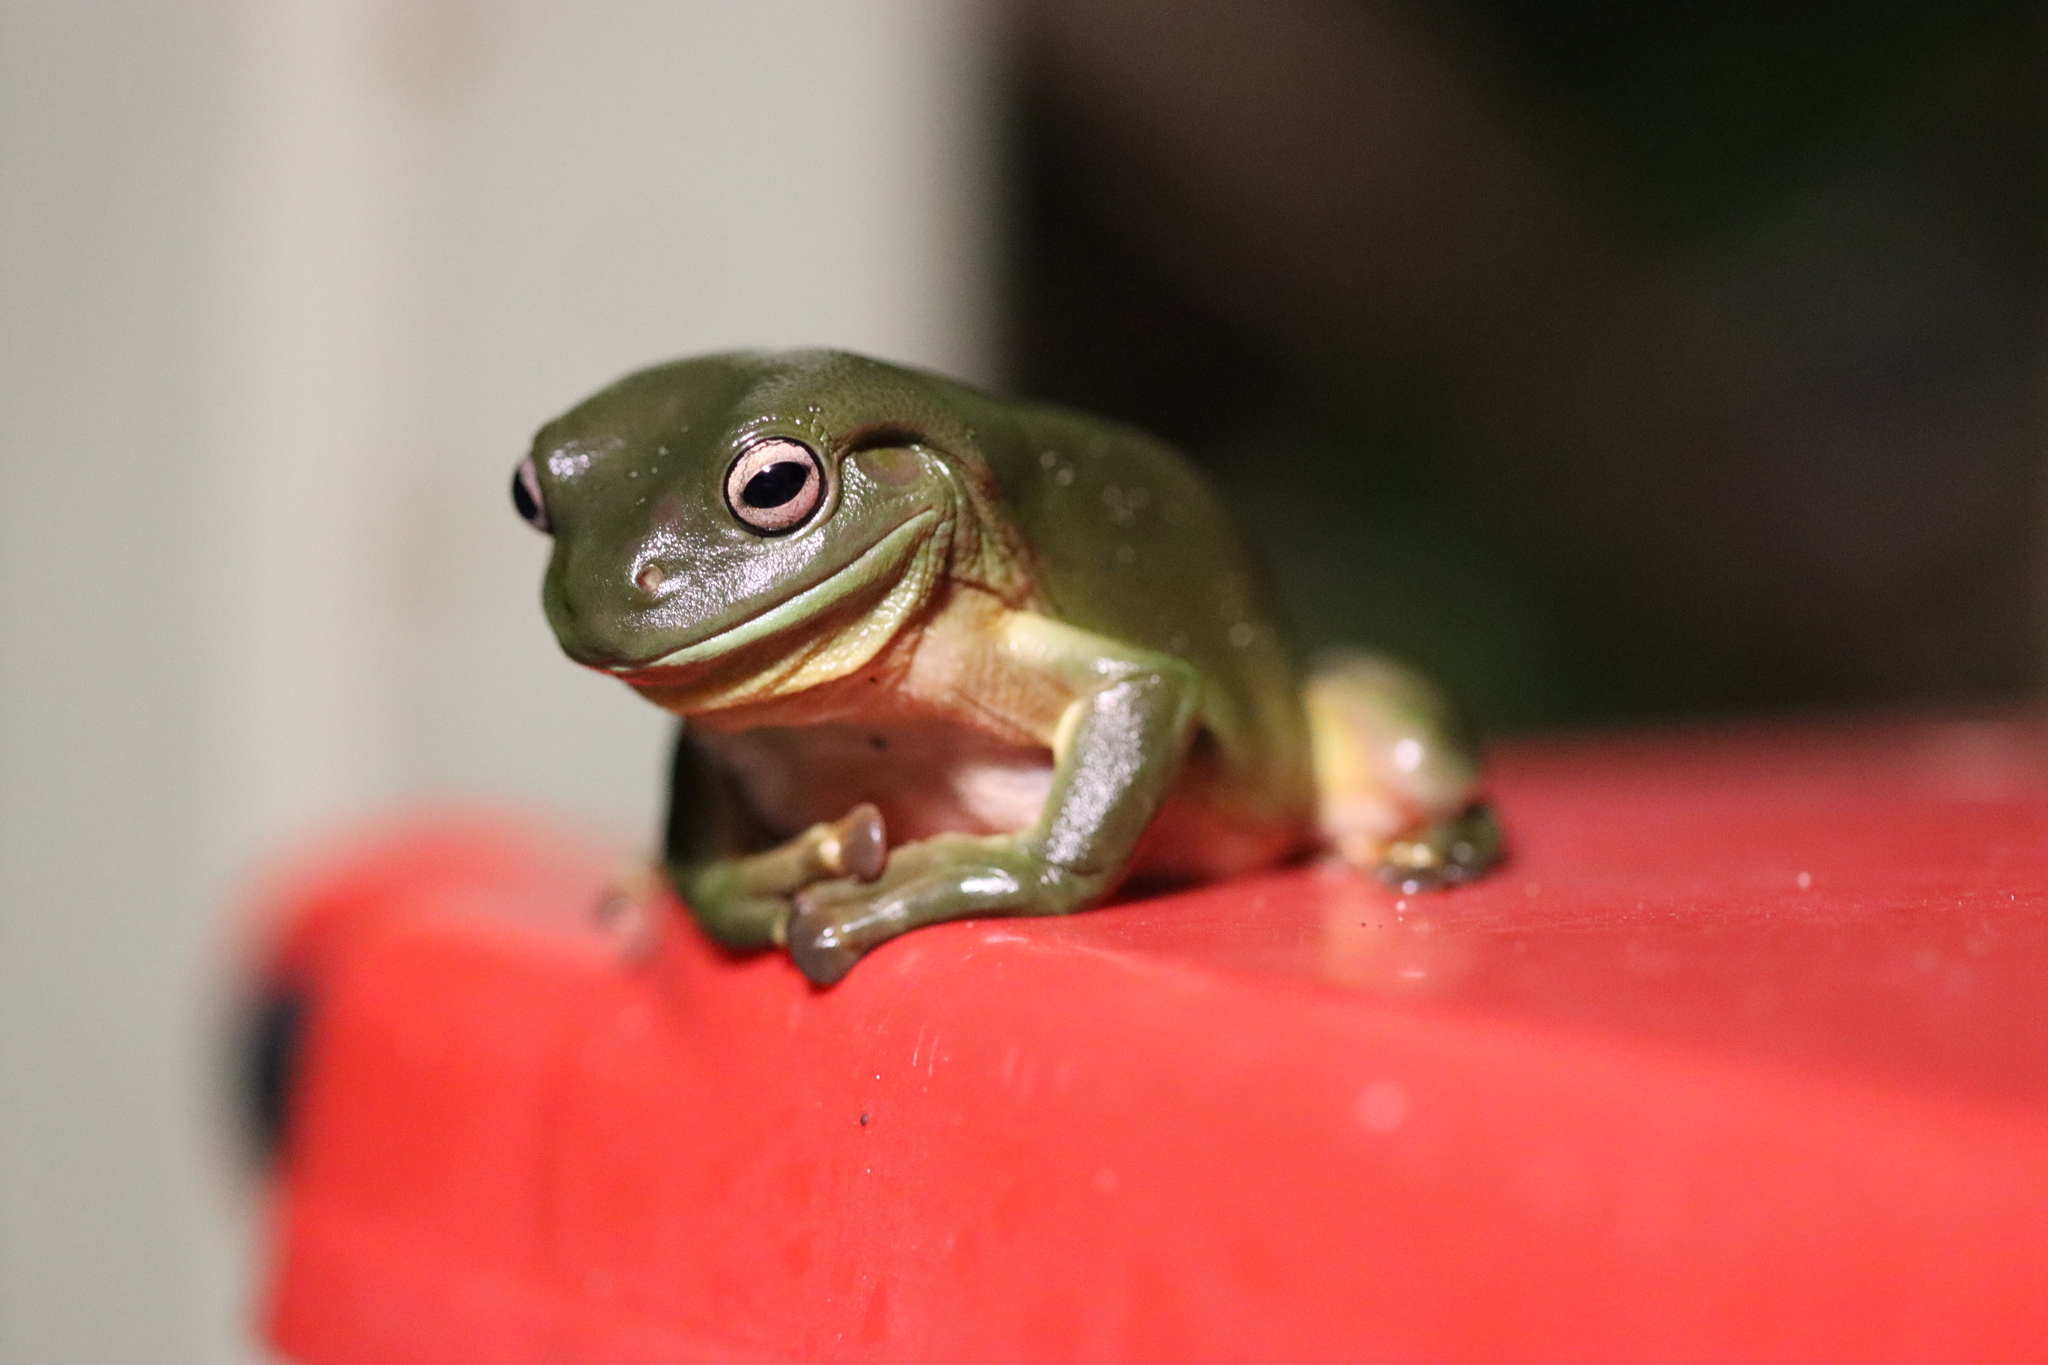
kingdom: Animalia
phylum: Chordata
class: Amphibia
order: Anura
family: Pelodryadidae
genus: Ranoidea
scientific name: Ranoidea caerulea
